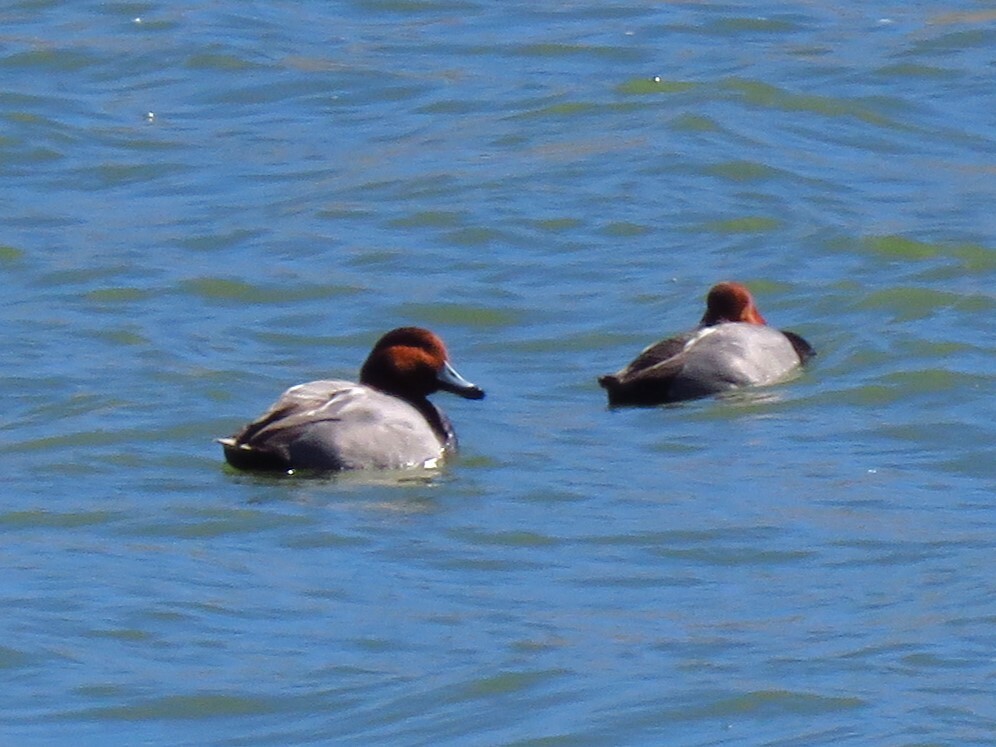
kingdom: Animalia
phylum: Chordata
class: Aves
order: Anseriformes
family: Anatidae
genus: Aythya
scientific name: Aythya americana
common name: Redhead
